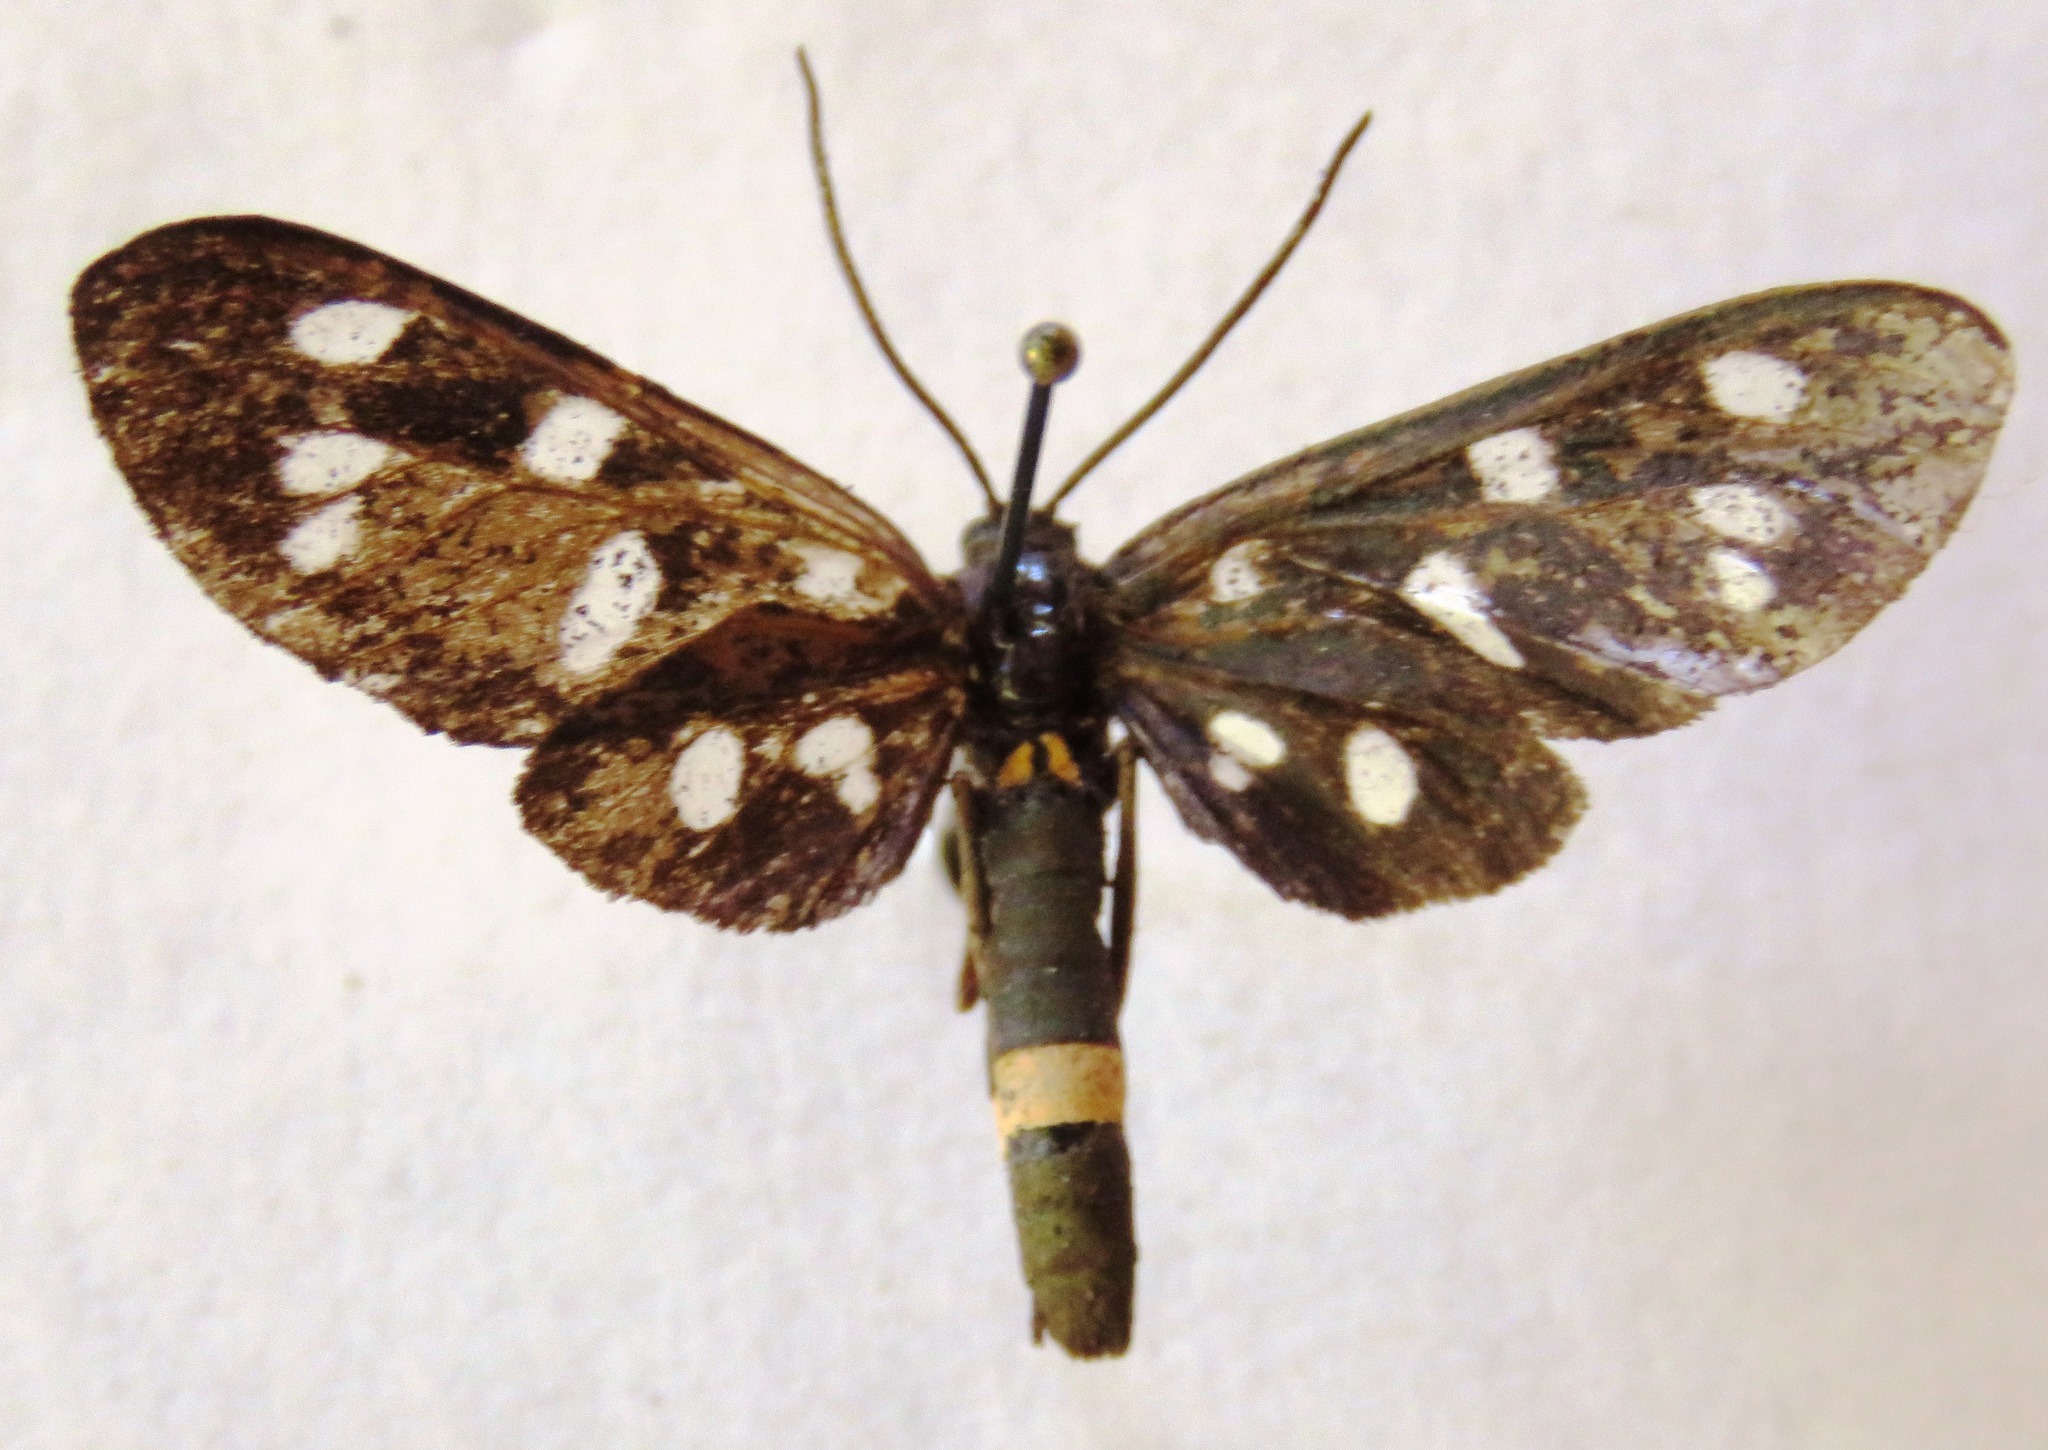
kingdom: Animalia
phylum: Arthropoda
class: Insecta
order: Lepidoptera
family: Erebidae
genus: Amata
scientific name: Amata phegea
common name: Nine-spotted
